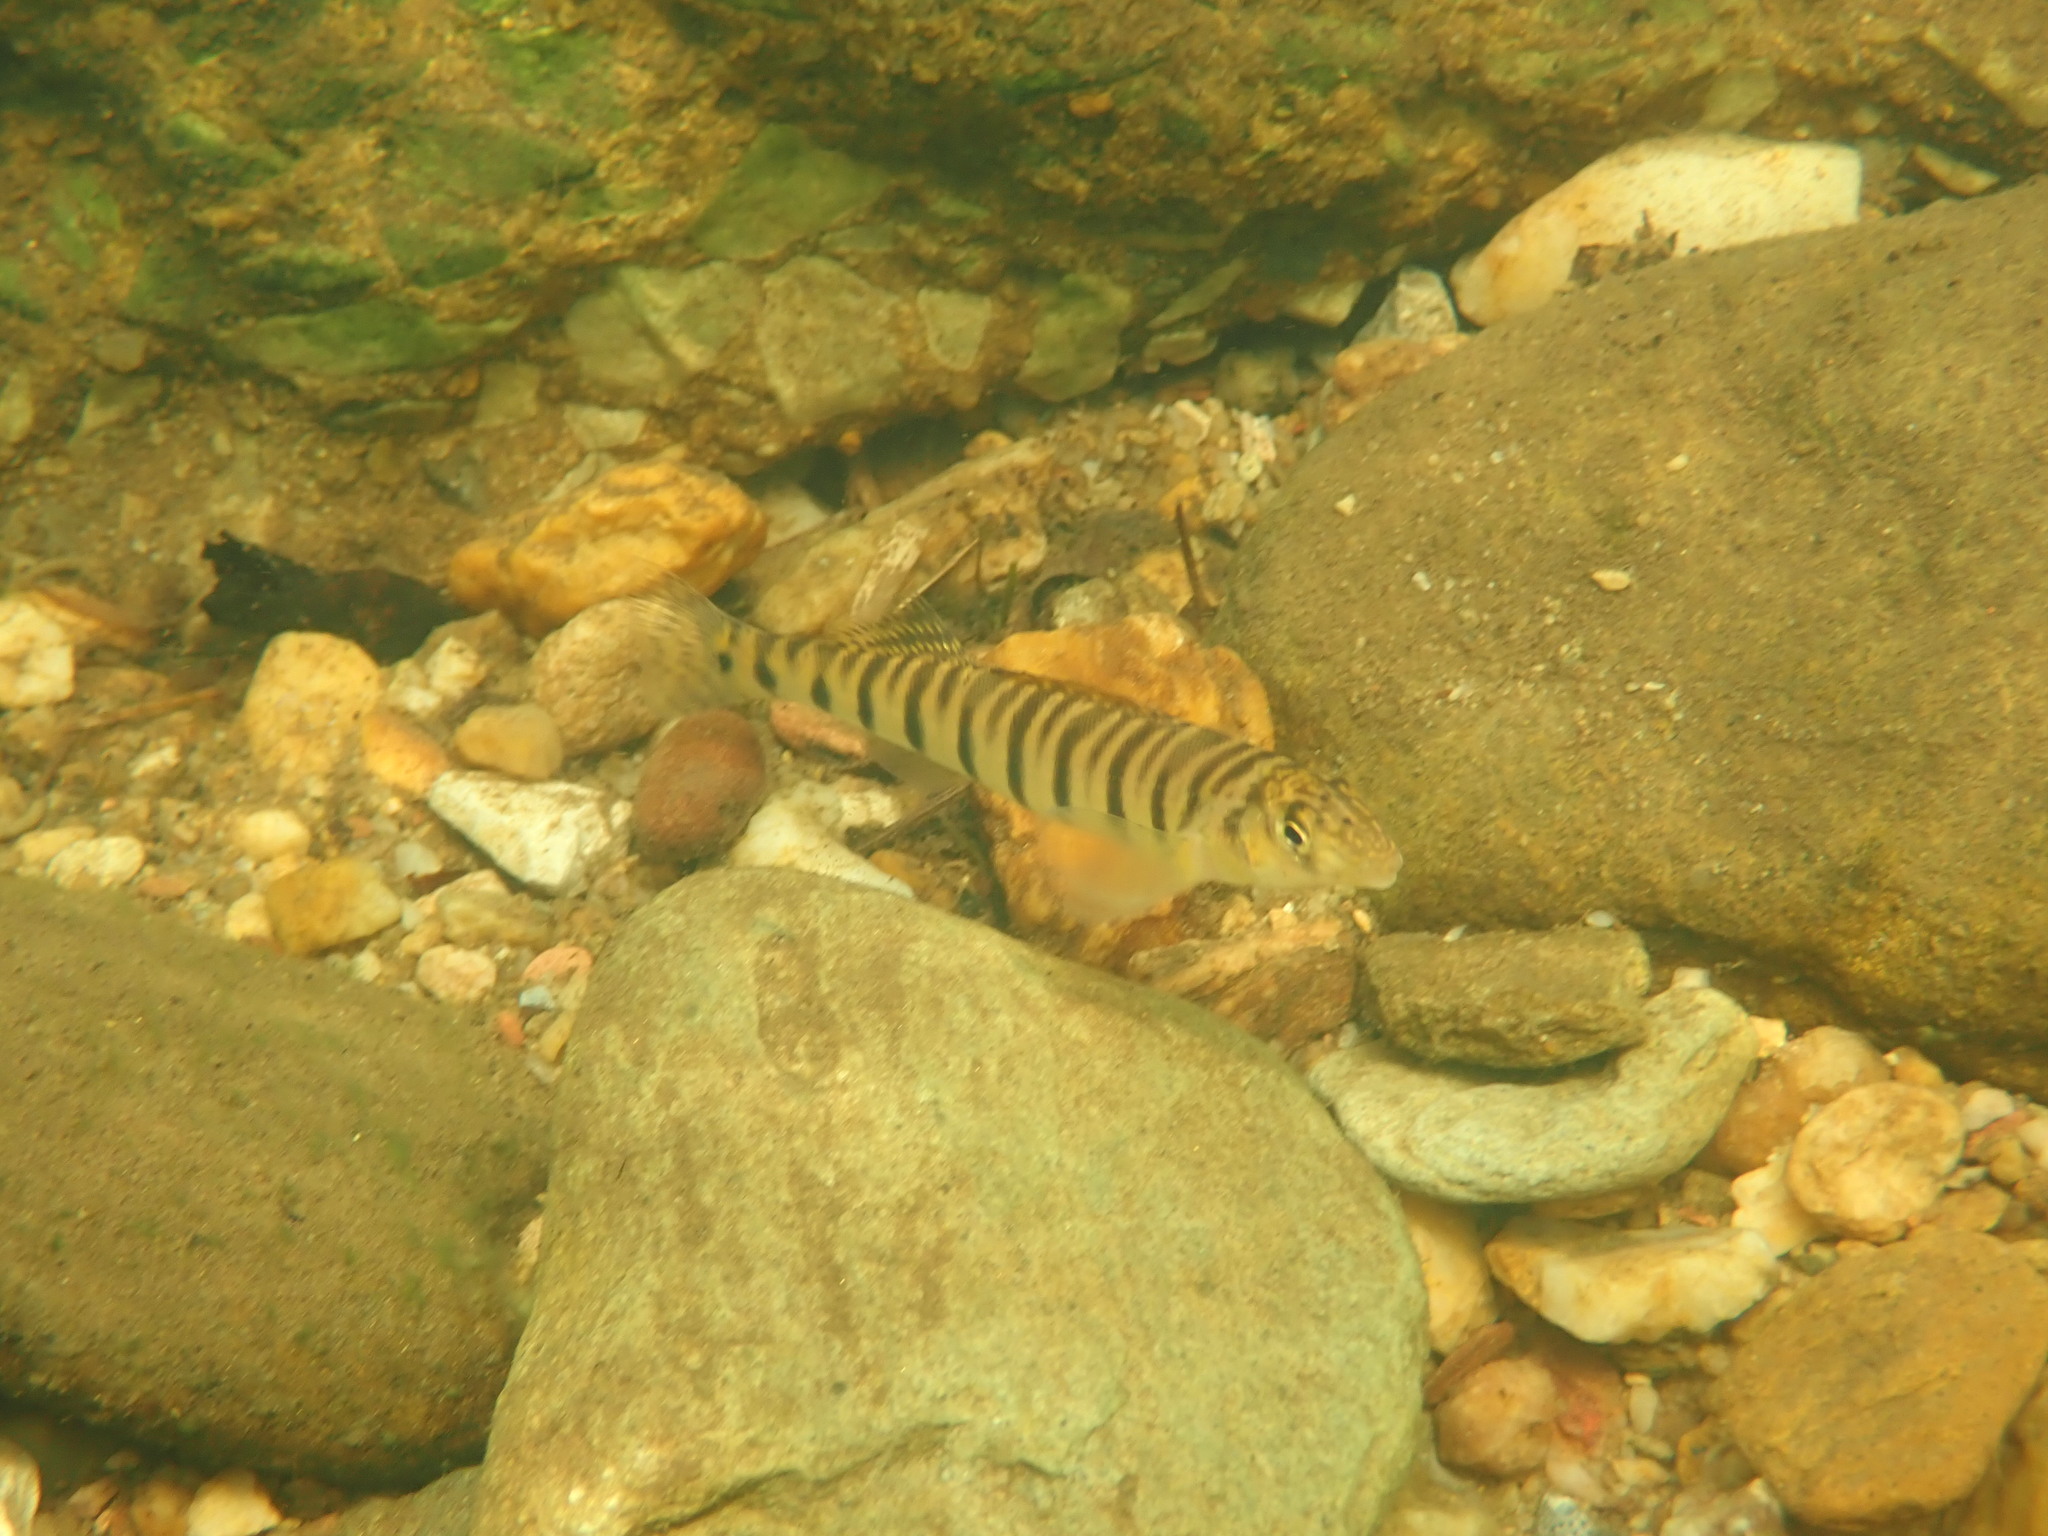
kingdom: Animalia
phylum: Chordata
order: Perciformes
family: Percidae
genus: Percina
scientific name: Percina kathae
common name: Mobile logperch
